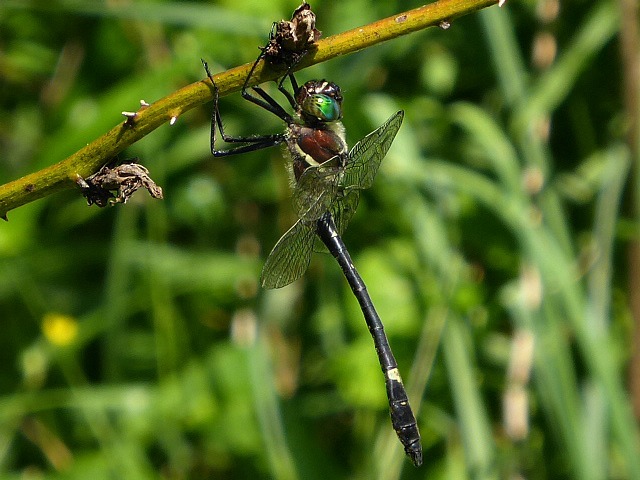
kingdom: Animalia
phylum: Arthropoda
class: Insecta
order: Odonata
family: Macromiidae
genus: Macromia
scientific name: Macromia illinoiensis
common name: Swift river cruiser
